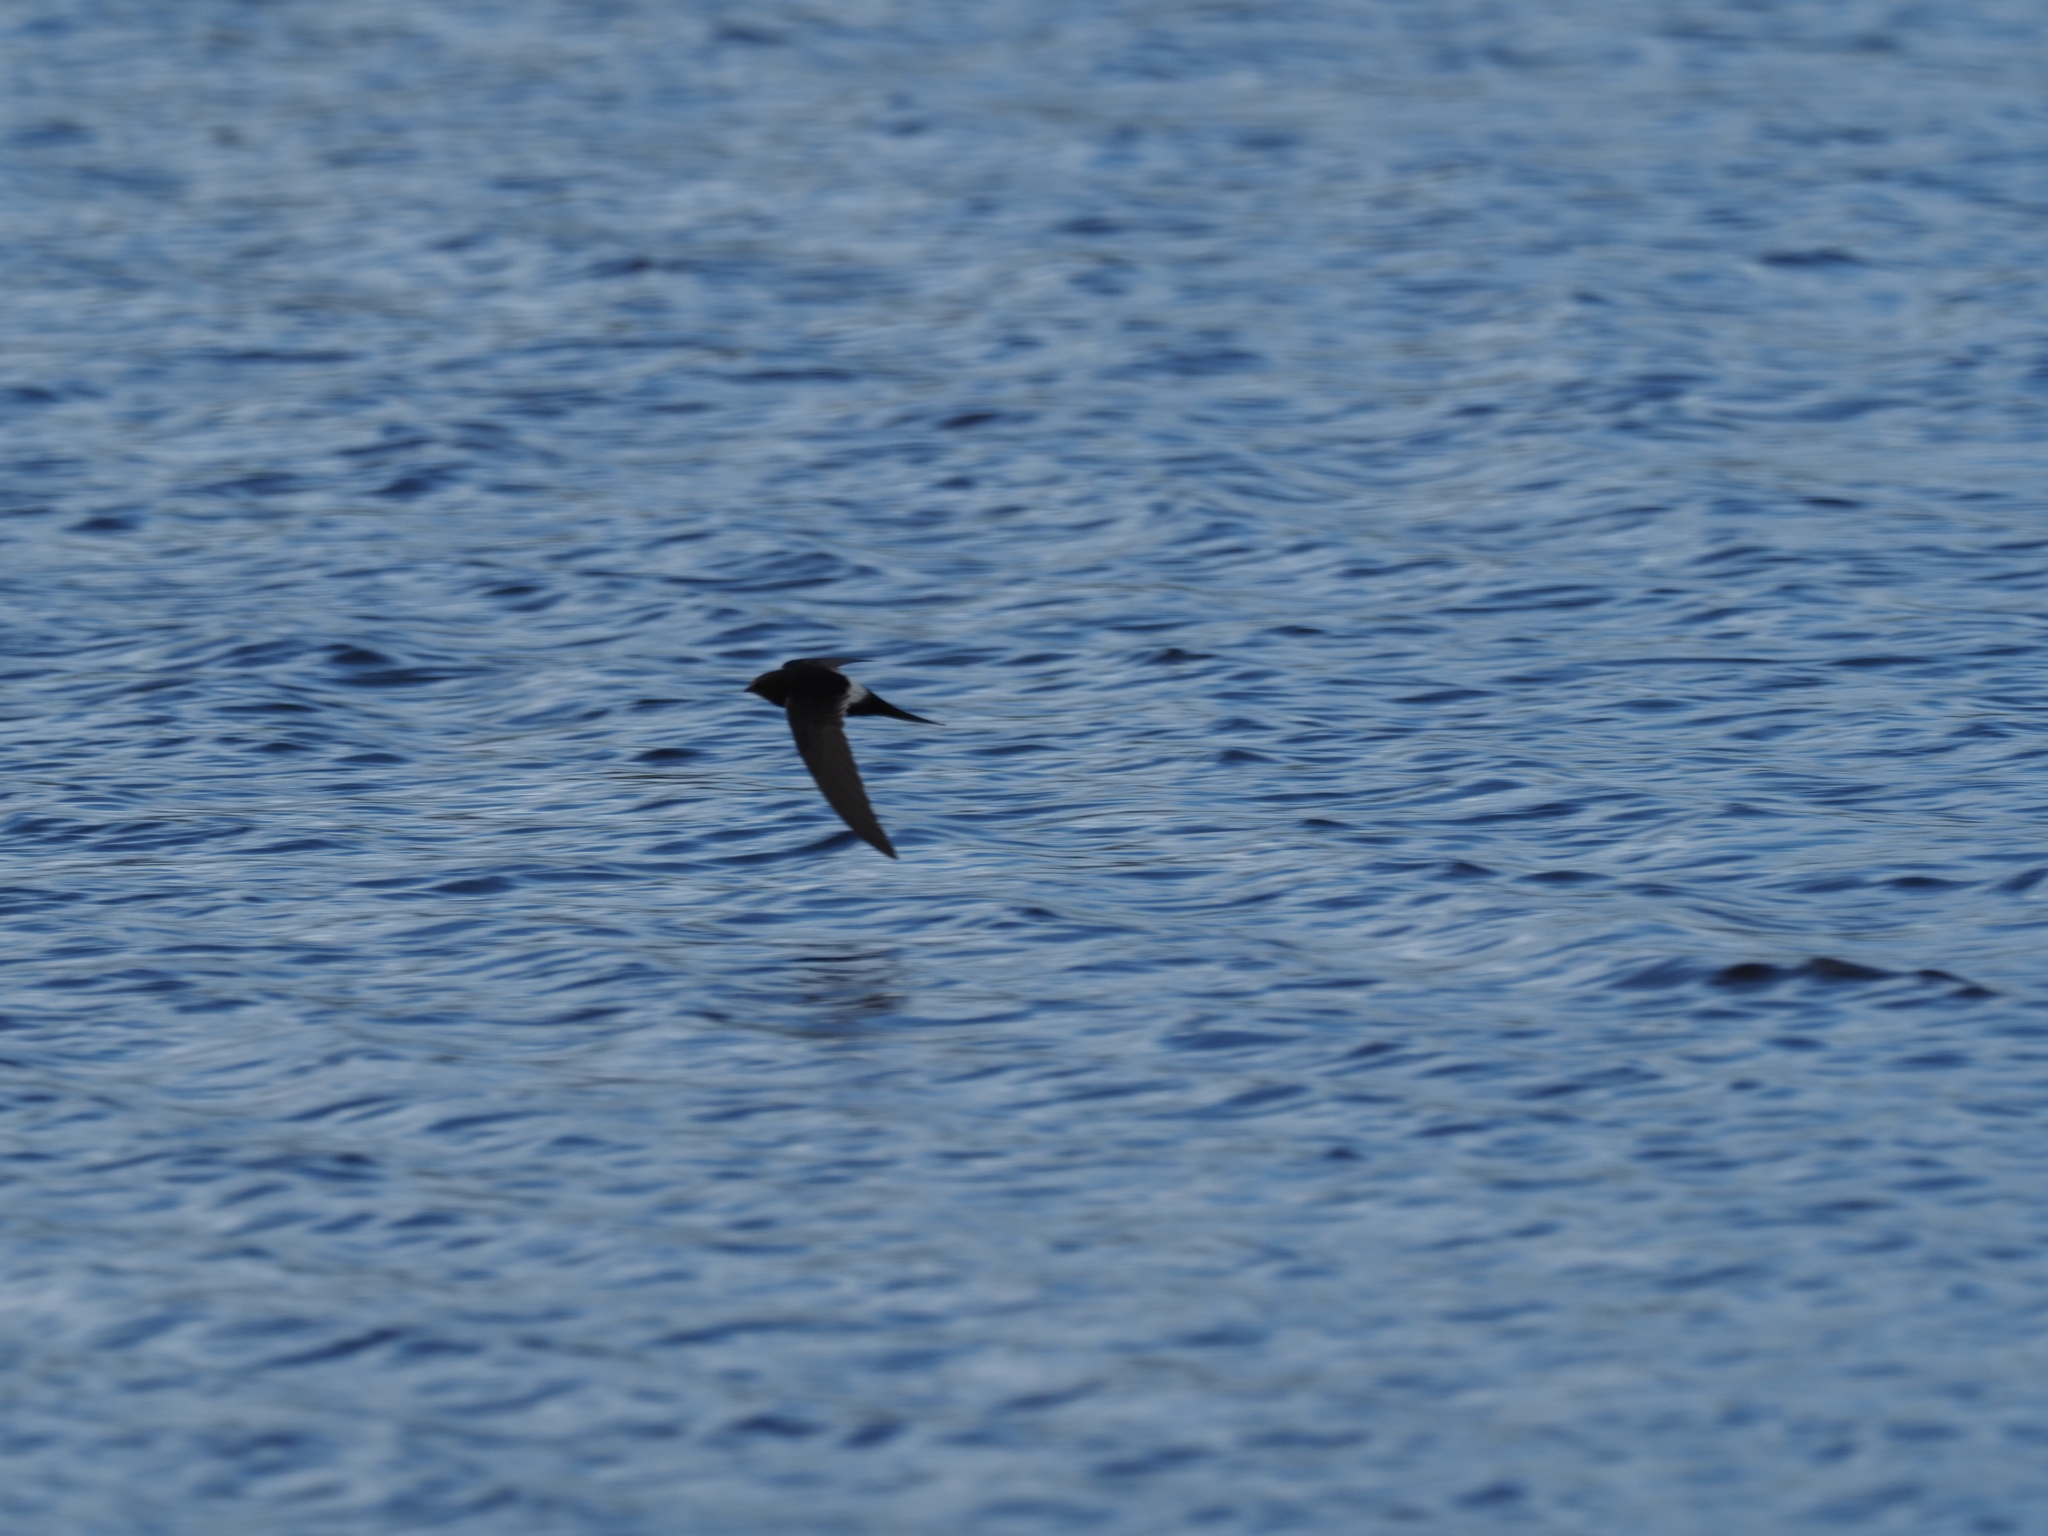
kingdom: Animalia
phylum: Chordata
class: Aves
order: Apodiformes
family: Apodidae
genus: Apus
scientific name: Apus caffer
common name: White-rumped swift
